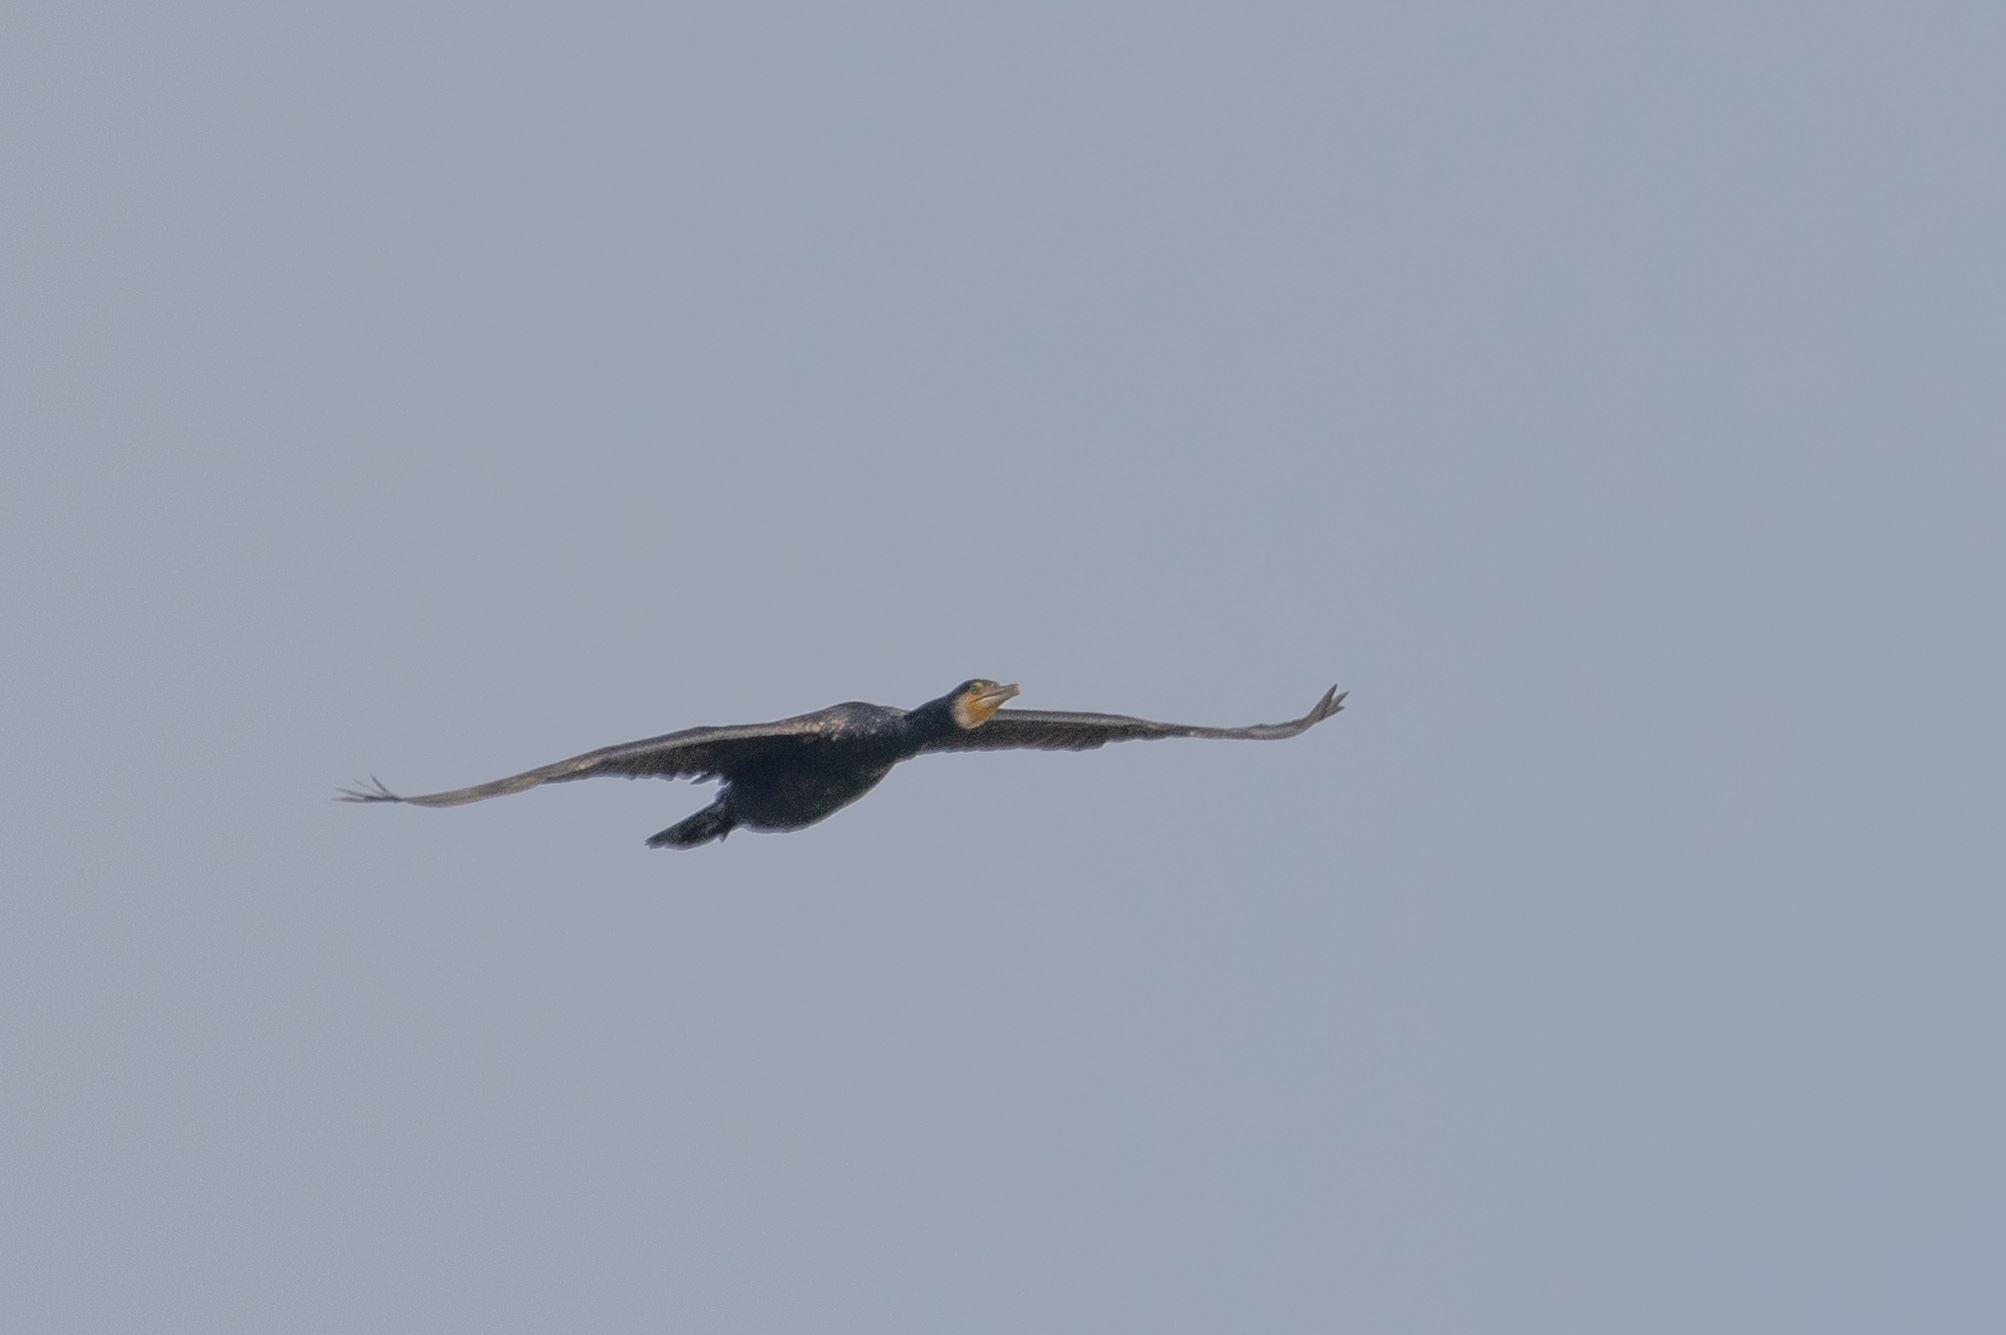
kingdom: Animalia
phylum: Chordata
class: Aves
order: Suliformes
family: Phalacrocoracidae
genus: Phalacrocorax
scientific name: Phalacrocorax carbo
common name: Great cormorant
